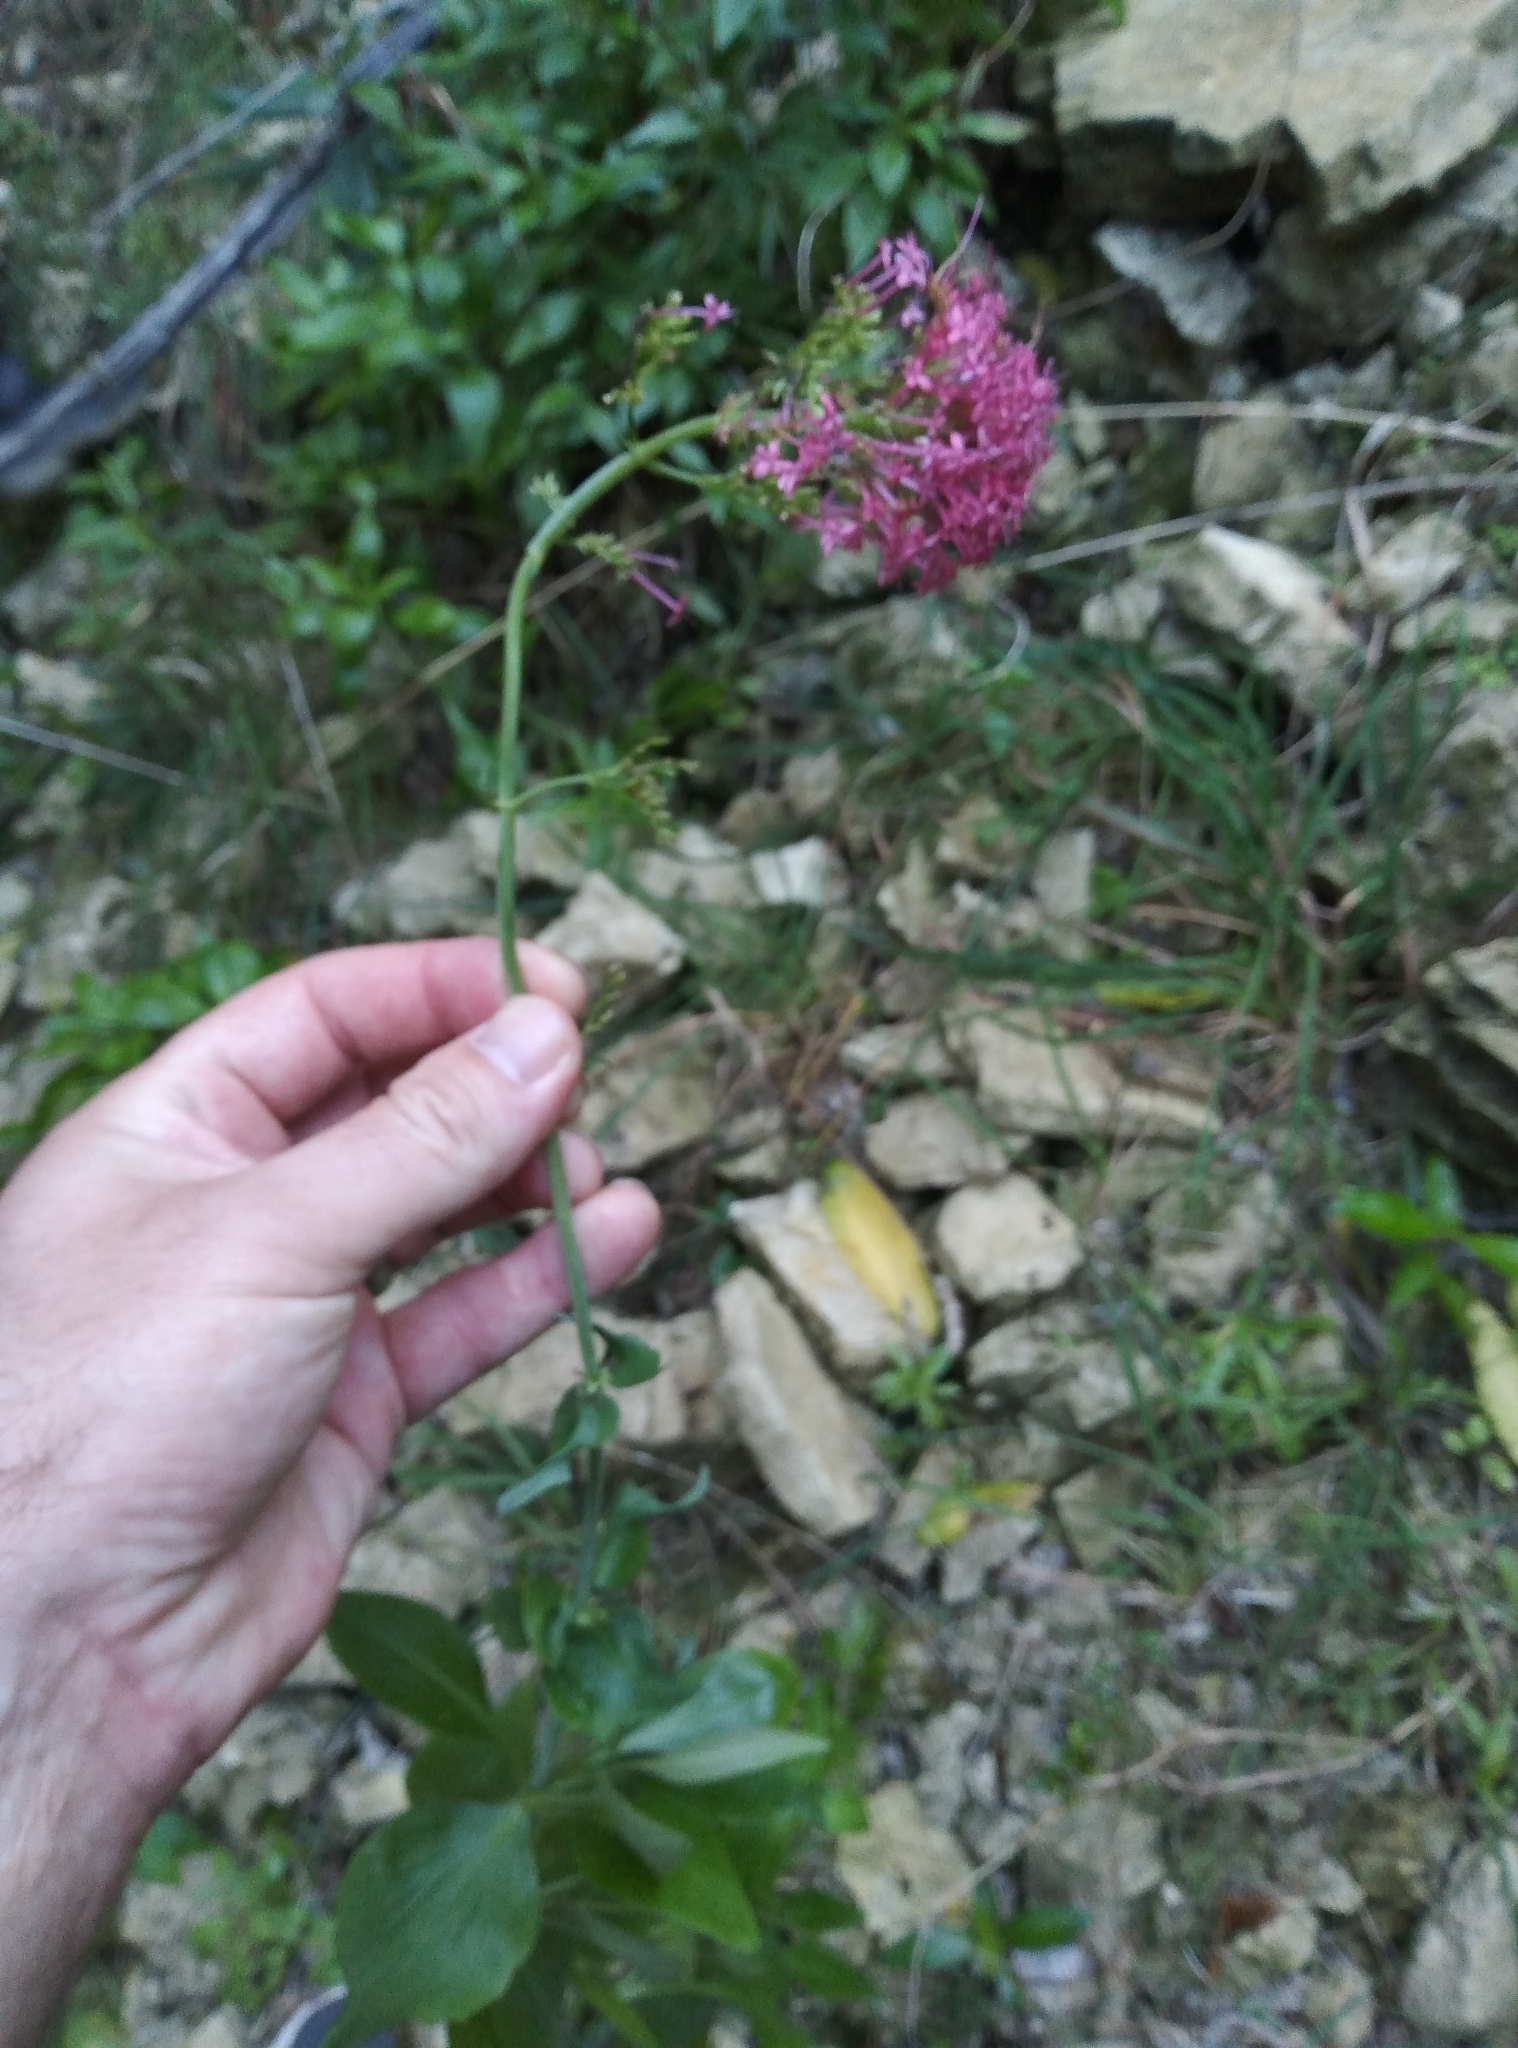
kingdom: Plantae
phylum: Tracheophyta
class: Magnoliopsida
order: Dipsacales
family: Caprifoliaceae
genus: Centranthus
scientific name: Centranthus ruber
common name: Red valerian
